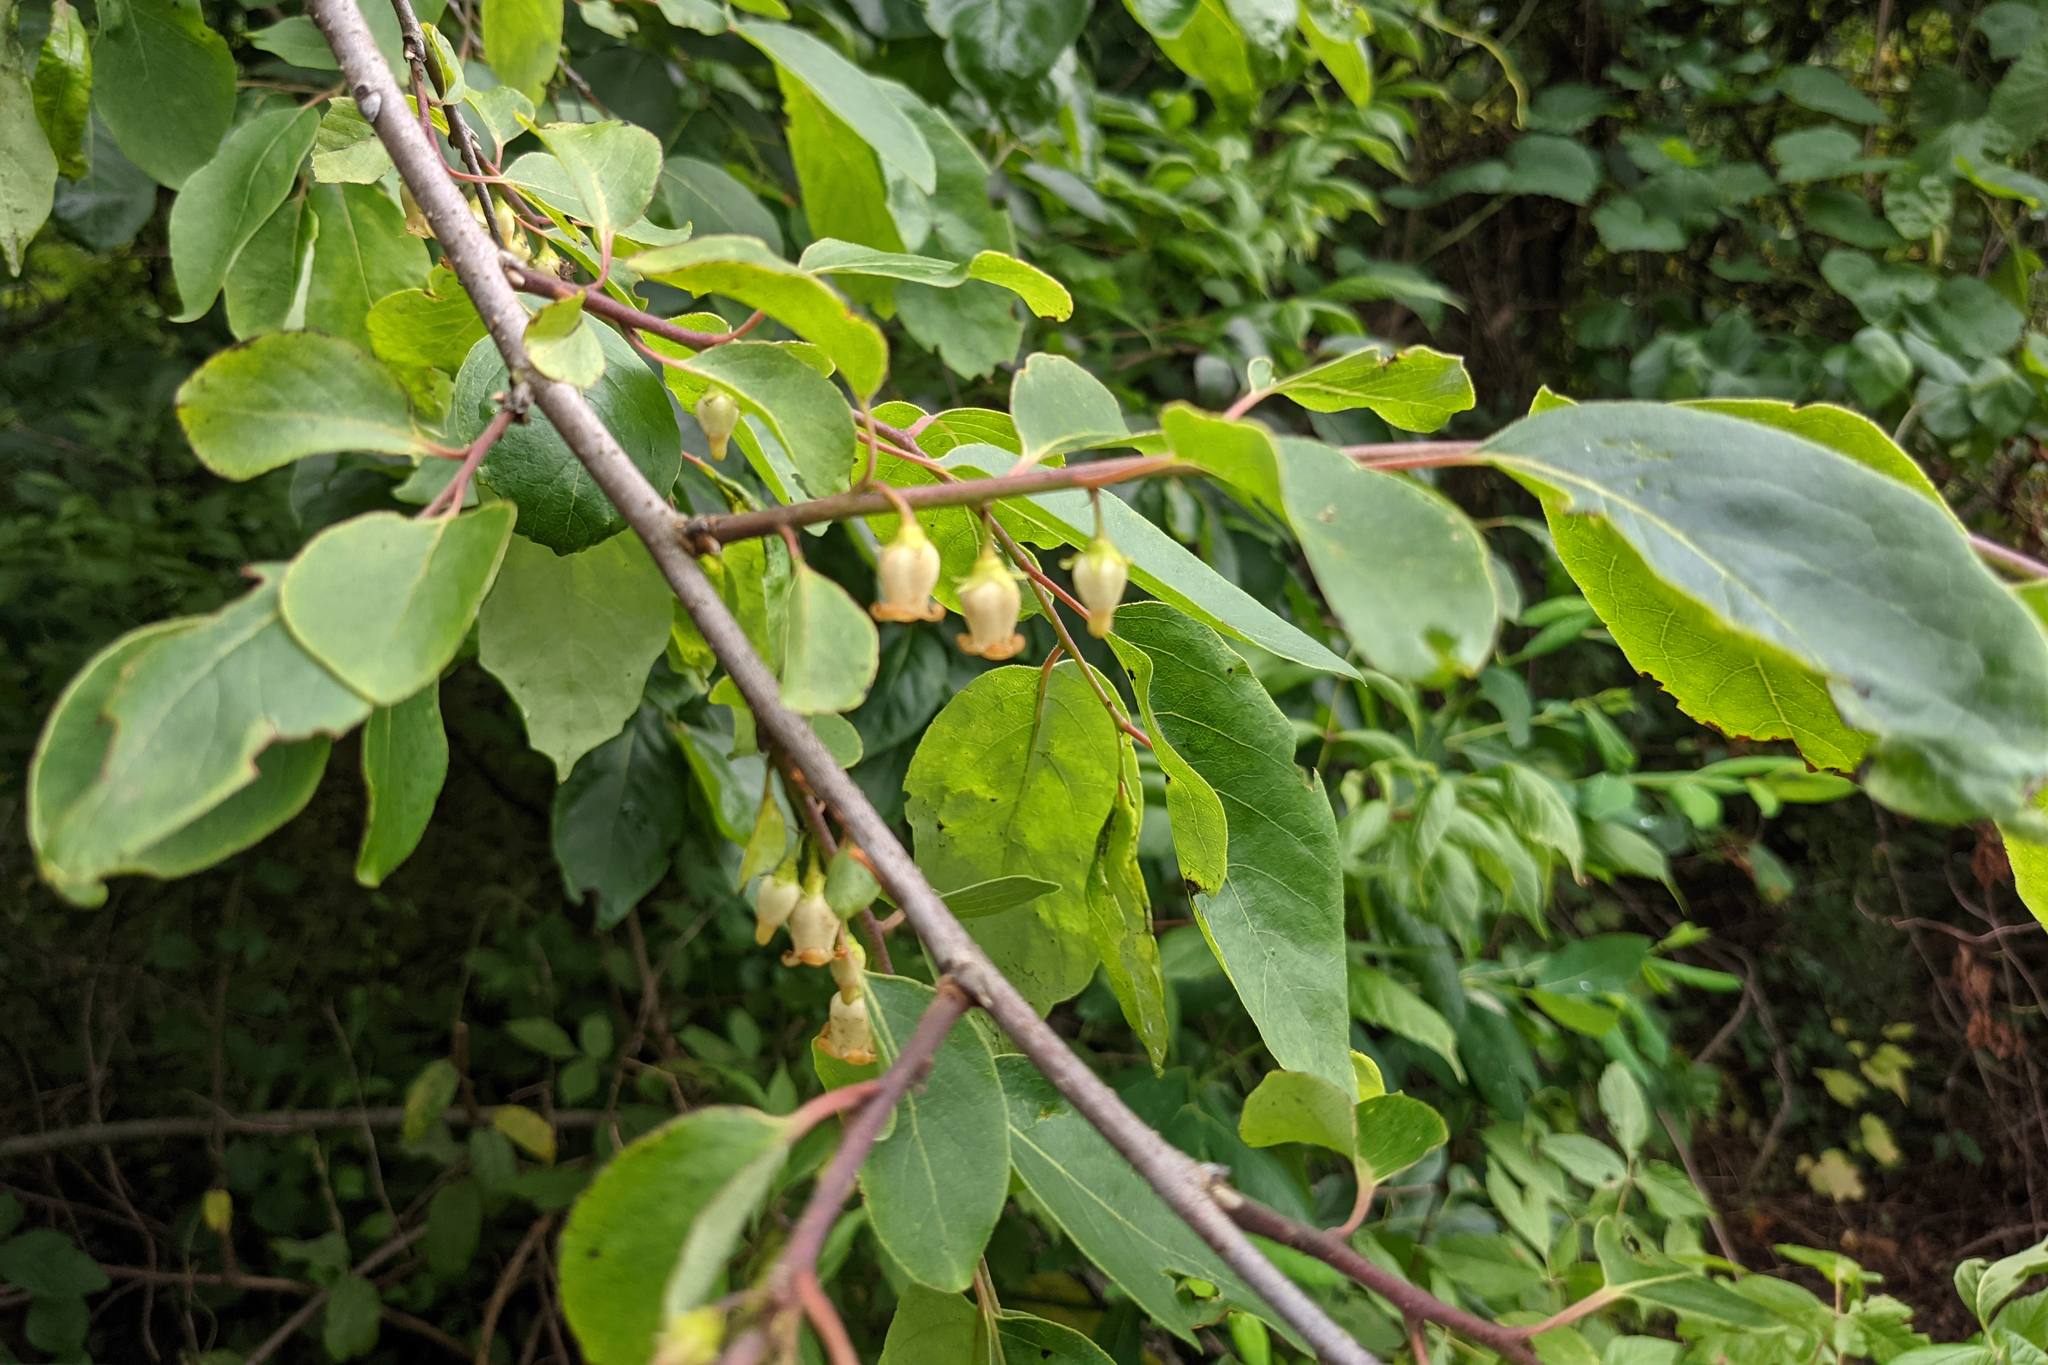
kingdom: Plantae
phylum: Tracheophyta
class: Magnoliopsida
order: Ericales
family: Ebenaceae
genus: Diospyros
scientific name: Diospyros virginiana
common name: Persimmon
